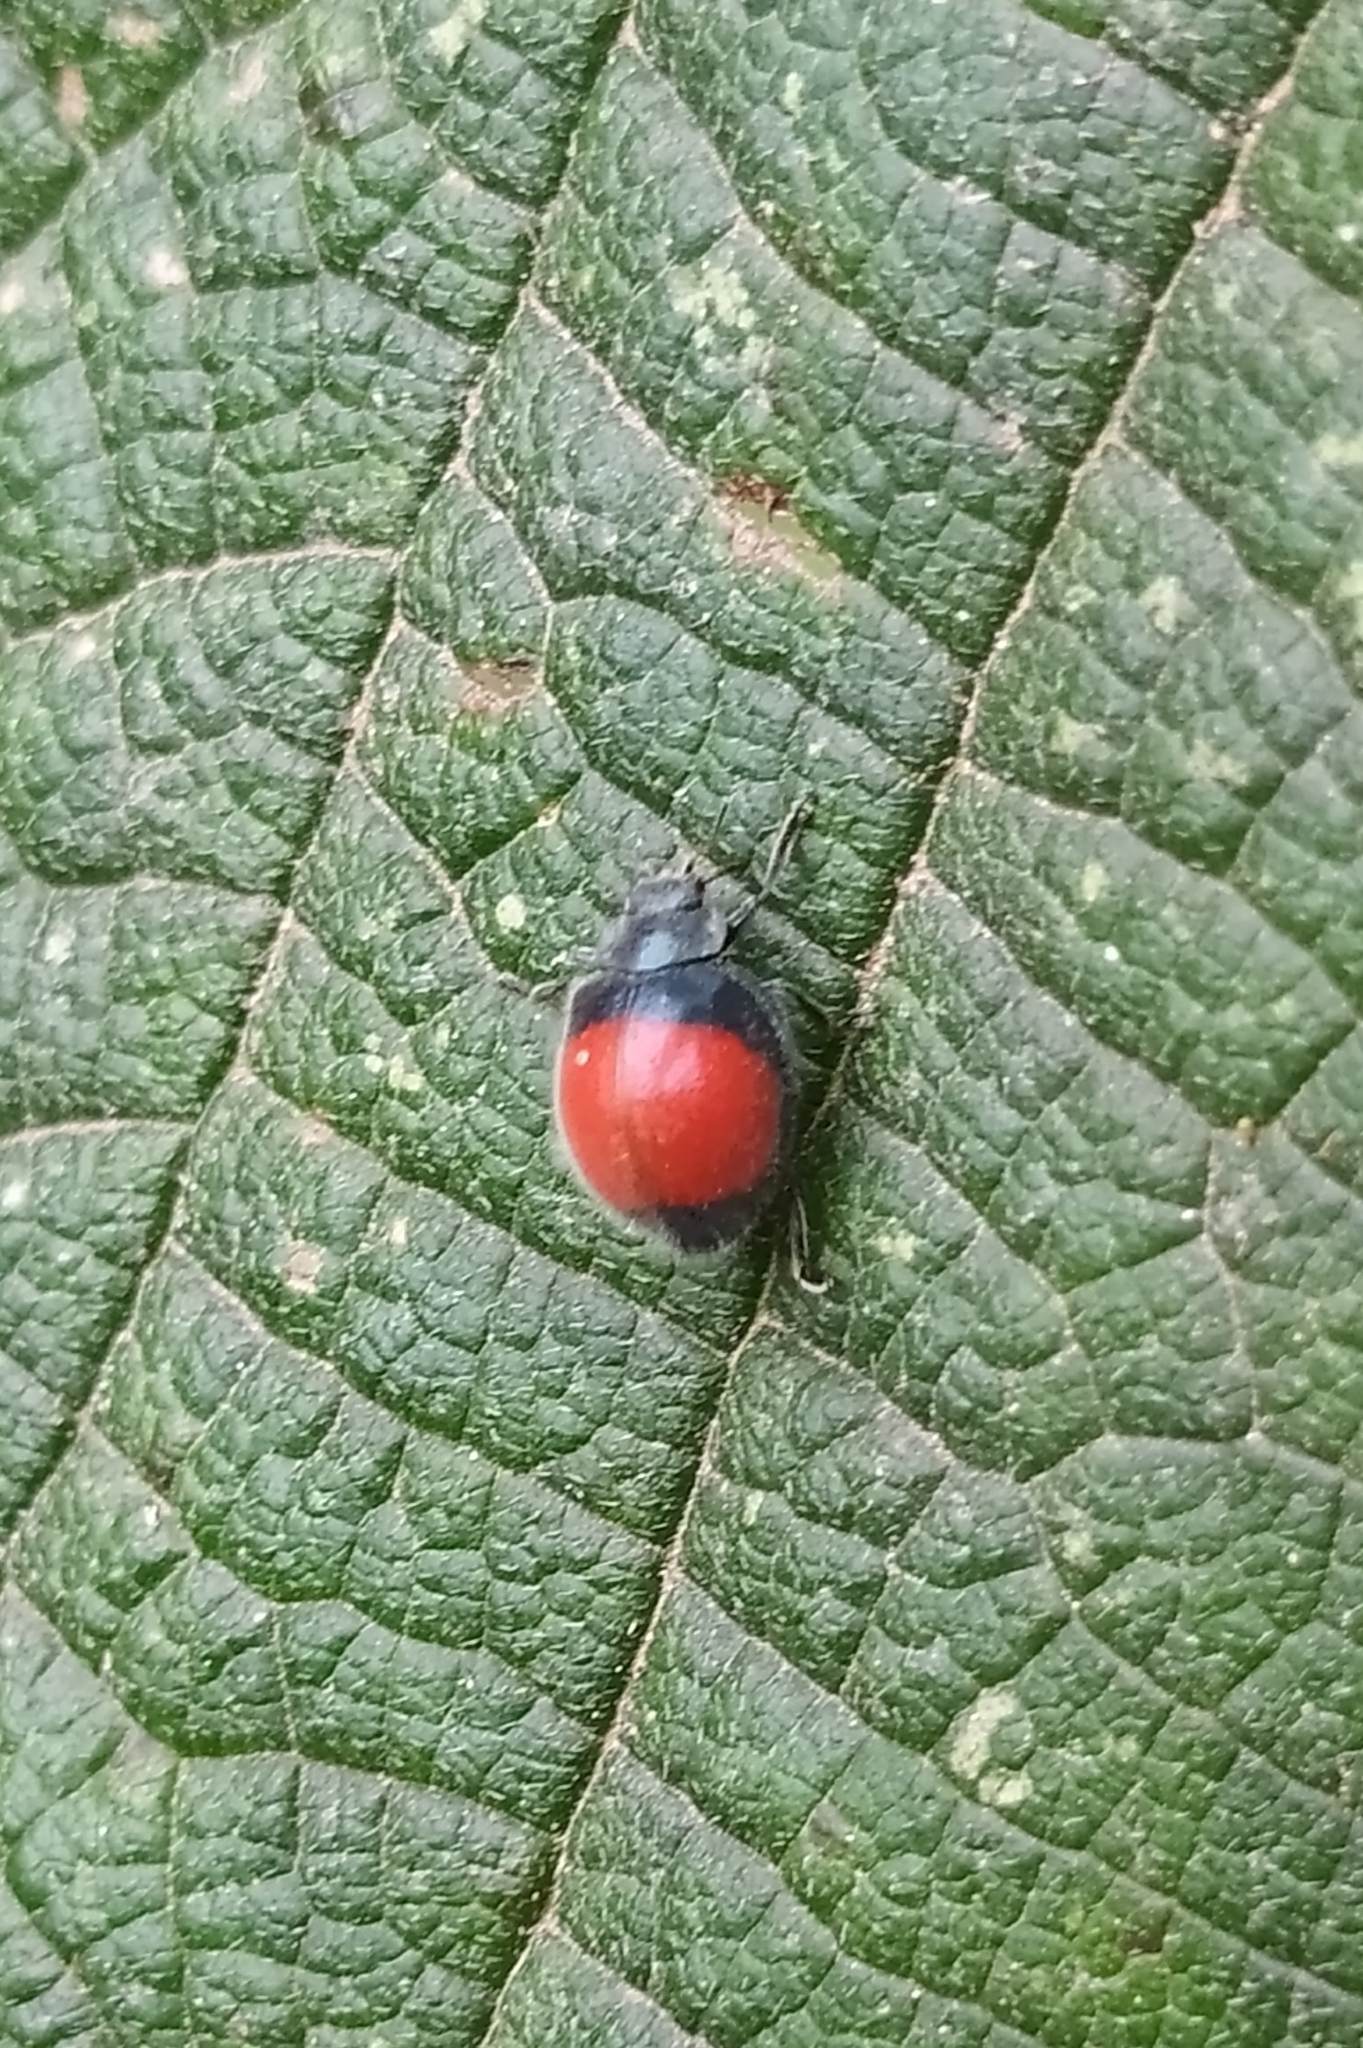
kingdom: Animalia
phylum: Arthropoda
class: Insecta
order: Coleoptera
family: Coccinellidae
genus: Toxotoma
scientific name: Toxotoma
